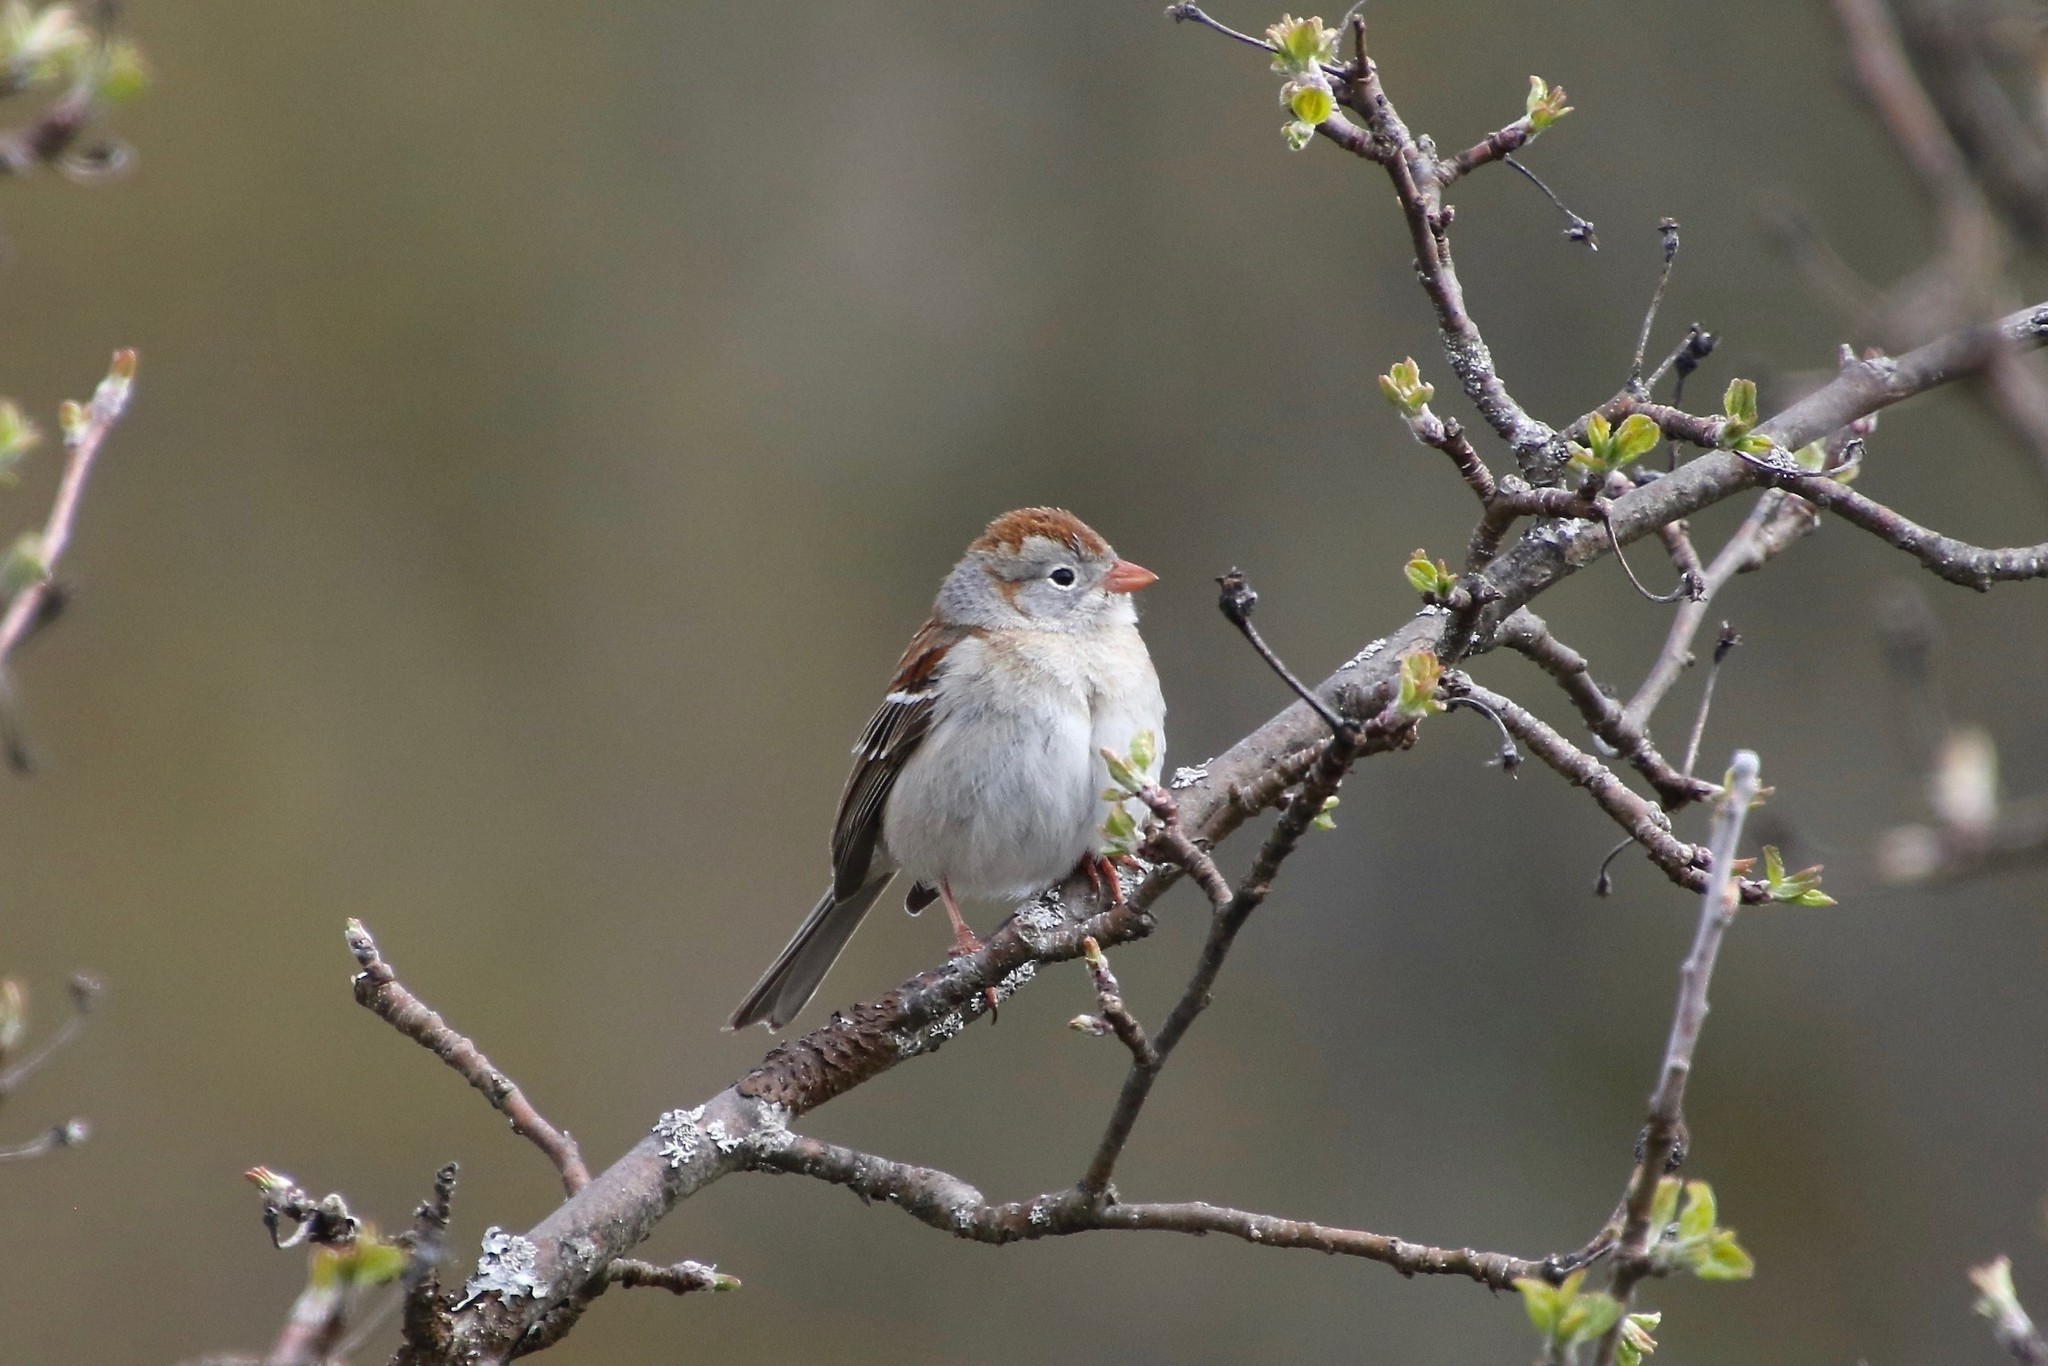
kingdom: Animalia
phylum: Chordata
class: Aves
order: Passeriformes
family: Passerellidae
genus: Spizella
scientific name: Spizella pusilla
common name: Field sparrow
